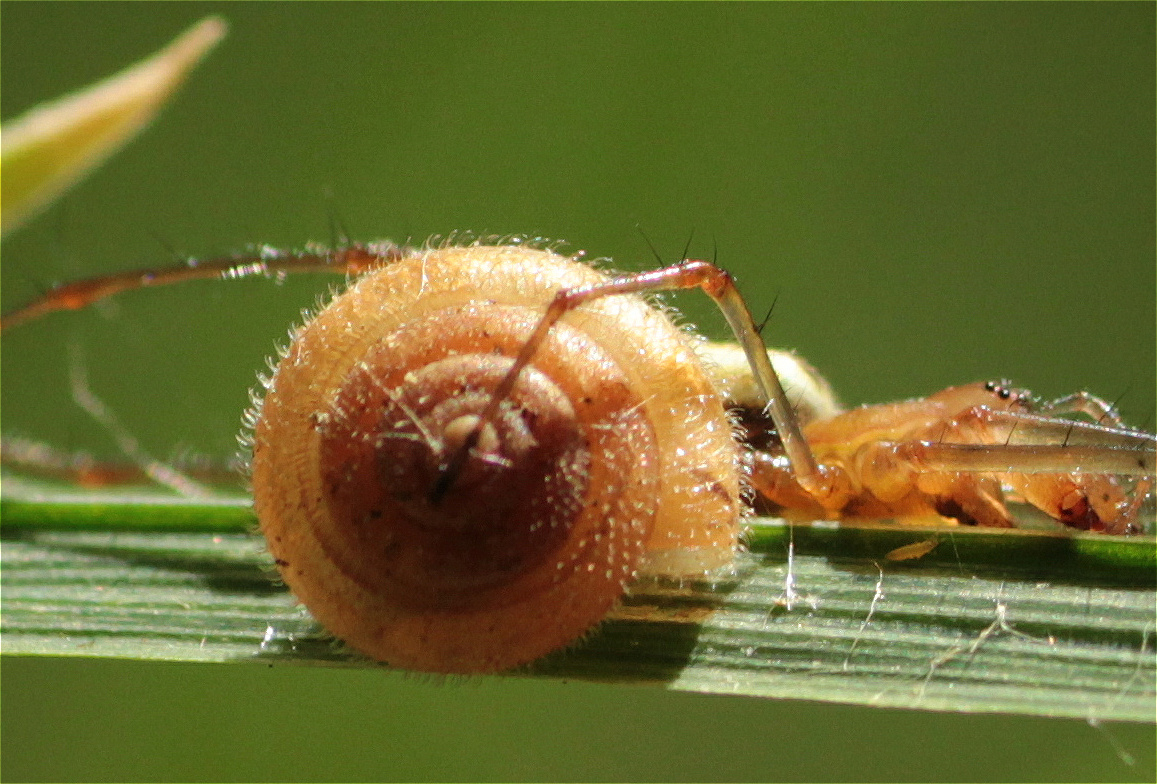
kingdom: Animalia
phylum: Mollusca
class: Gastropoda
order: Stylommatophora
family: Hygromiidae
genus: Trochulus
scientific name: Trochulus hispidus
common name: Hairy snail
